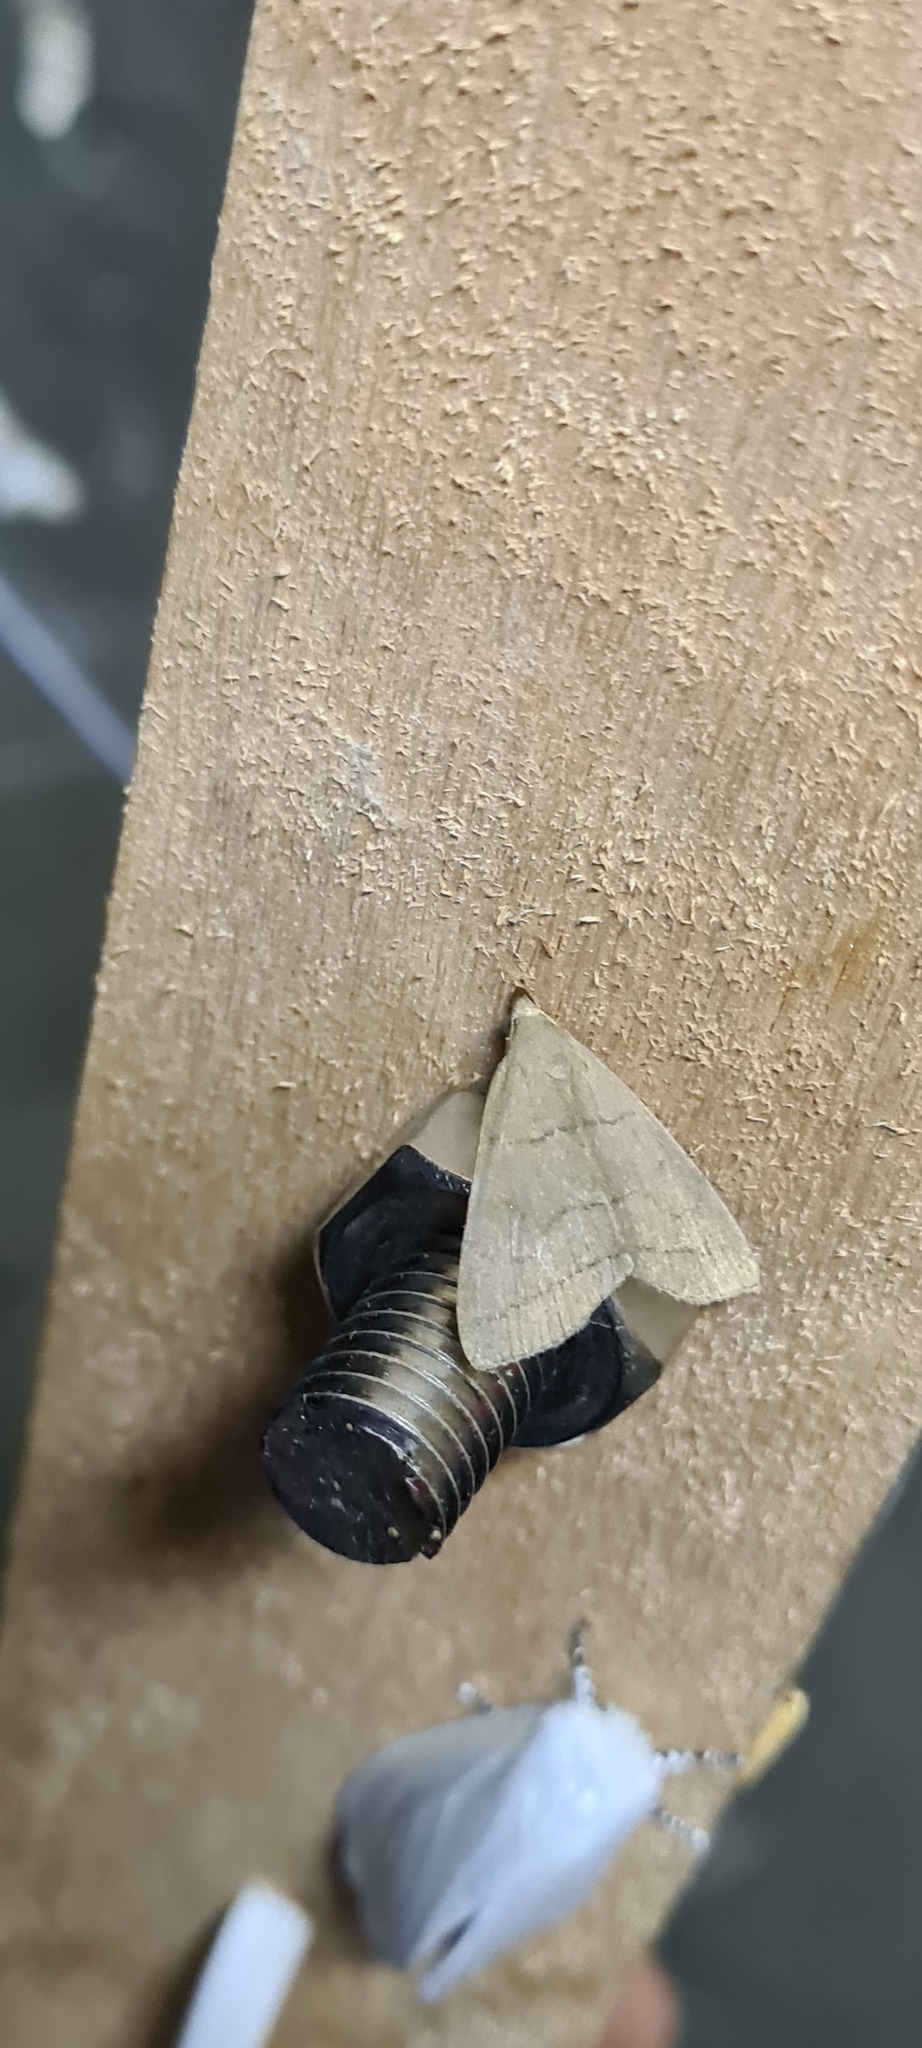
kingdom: Animalia
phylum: Arthropoda
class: Insecta
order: Lepidoptera
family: Erebidae
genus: Herminia
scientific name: Herminia tarsipennalis
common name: Fan-foot
